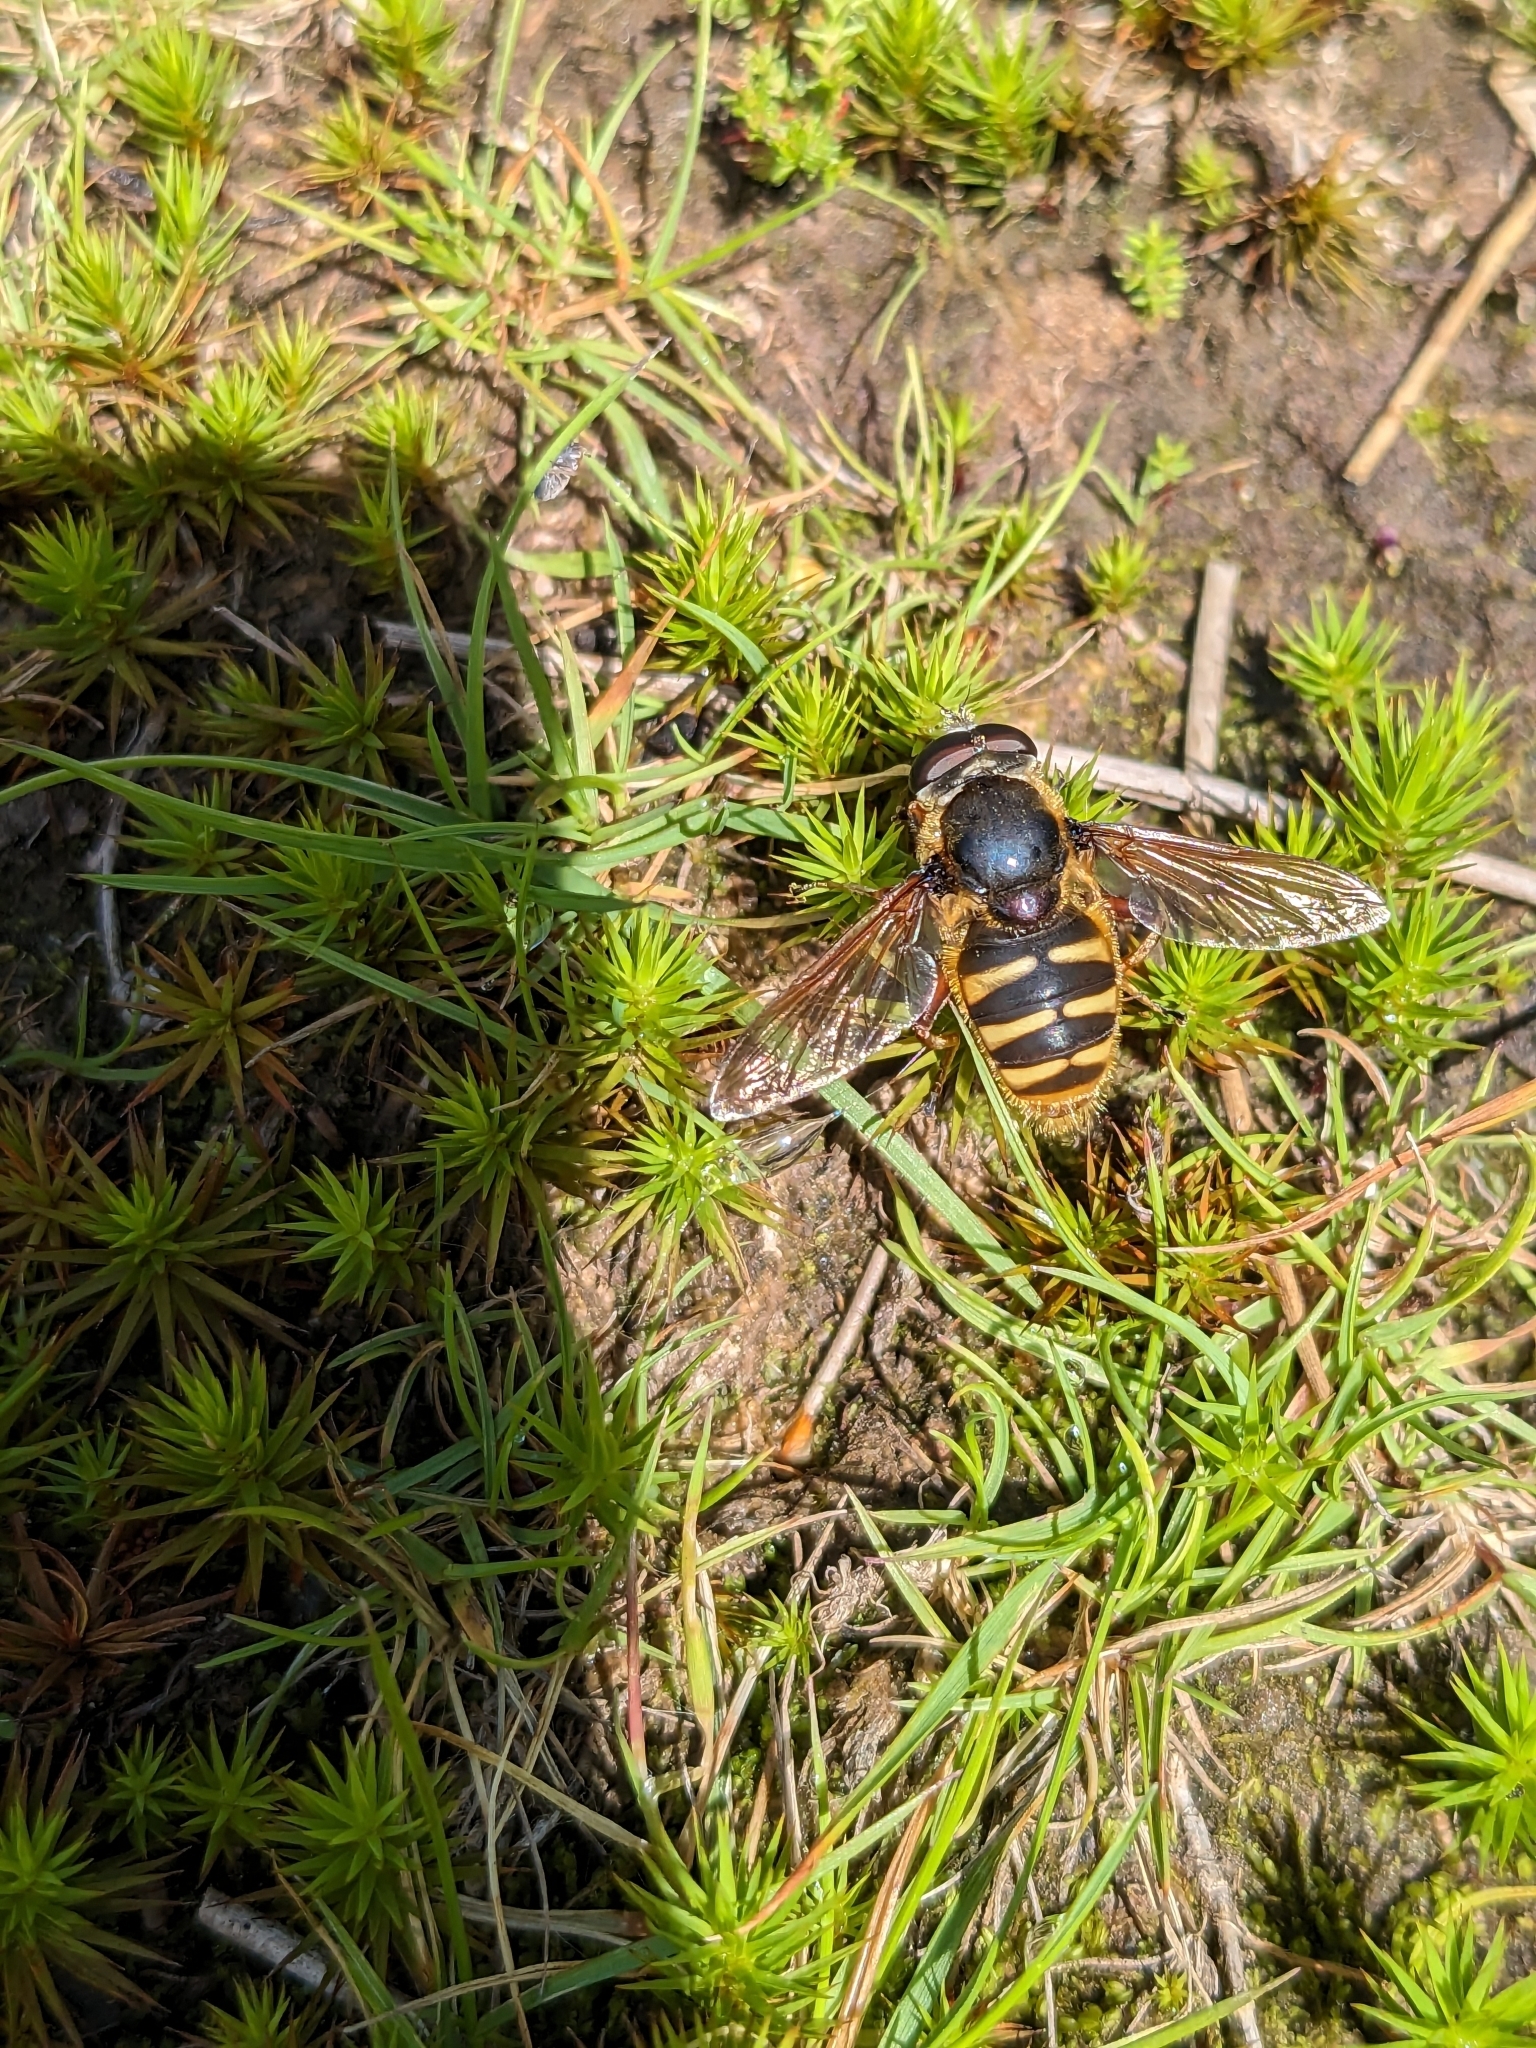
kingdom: Animalia
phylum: Arthropoda
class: Insecta
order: Diptera
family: Syrphidae
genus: Sericomyia
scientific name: Sericomyia silentis
